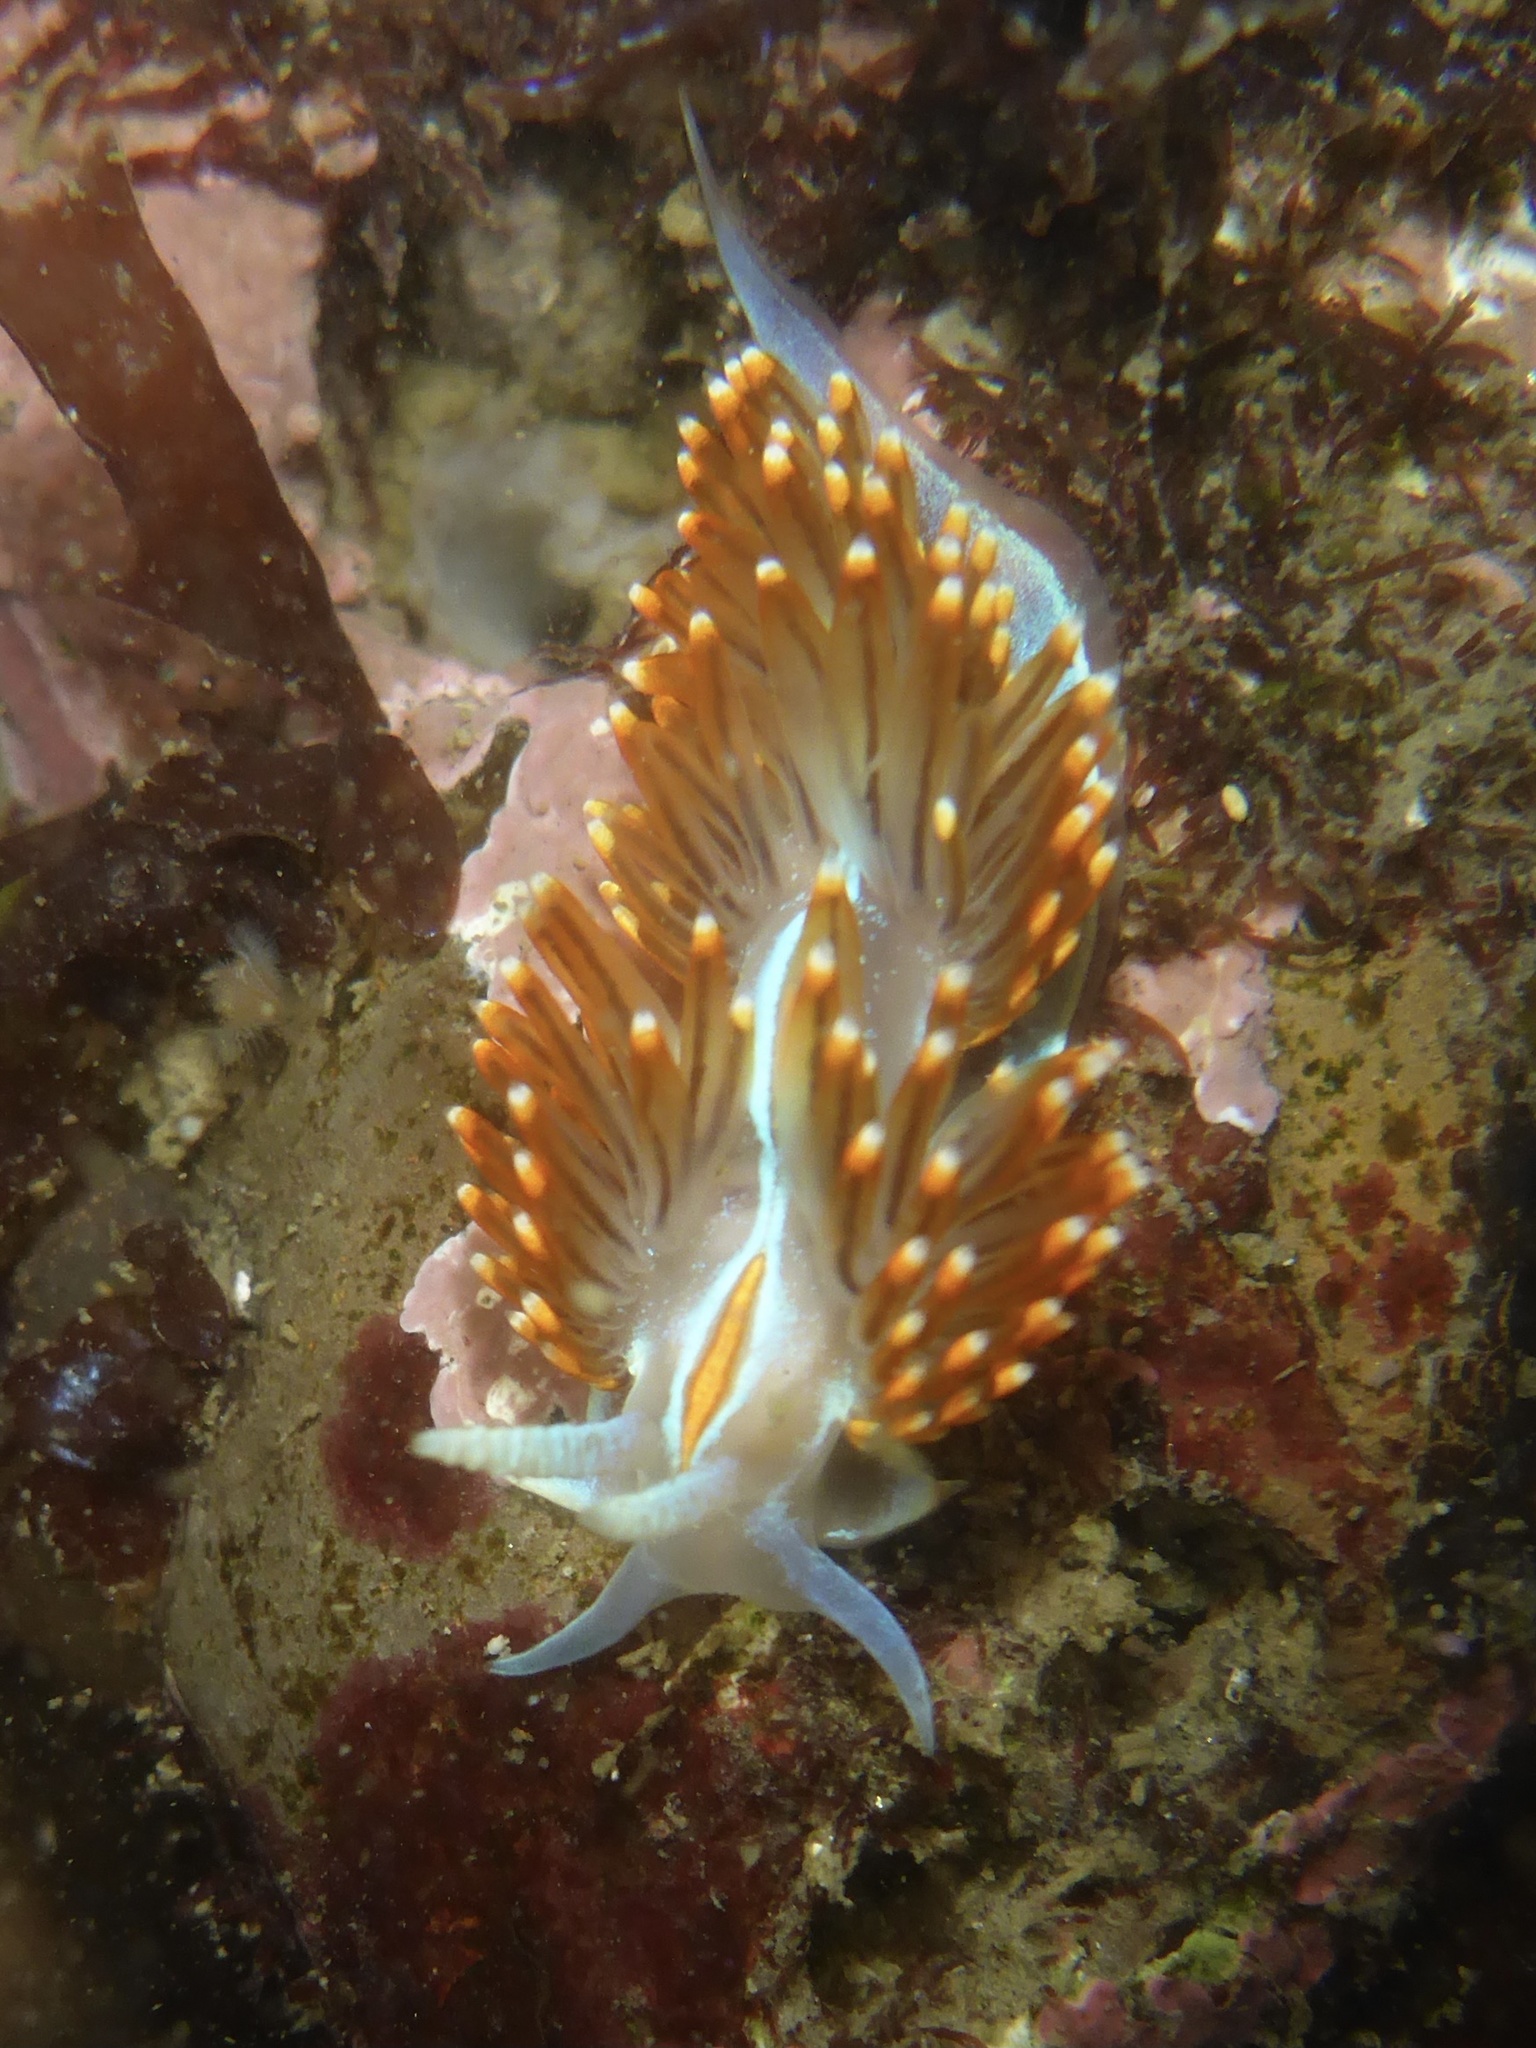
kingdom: Animalia
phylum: Mollusca
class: Gastropoda
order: Nudibranchia
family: Myrrhinidae
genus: Hermissenda
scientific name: Hermissenda opalescens
